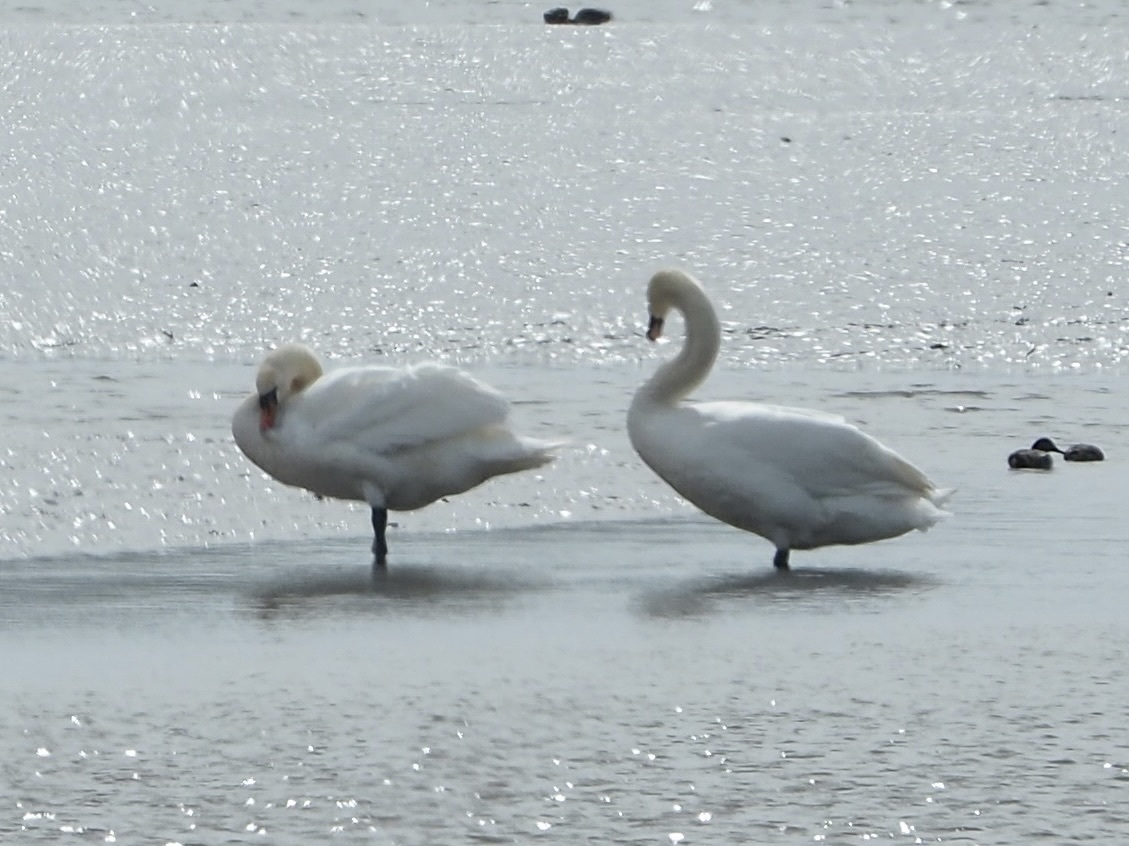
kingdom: Animalia
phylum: Chordata
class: Aves
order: Anseriformes
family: Anatidae
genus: Cygnus
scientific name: Cygnus olor
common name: Mute swan
